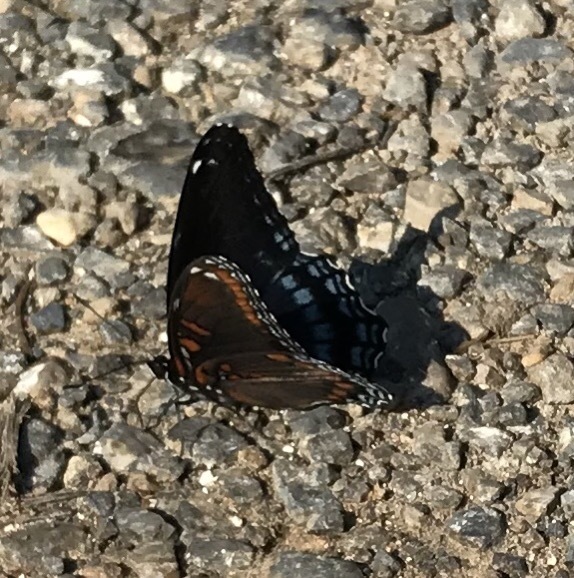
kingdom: Animalia
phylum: Arthropoda
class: Insecta
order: Lepidoptera
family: Nymphalidae
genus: Limenitis
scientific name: Limenitis arthemis
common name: Red-spotted admiral
